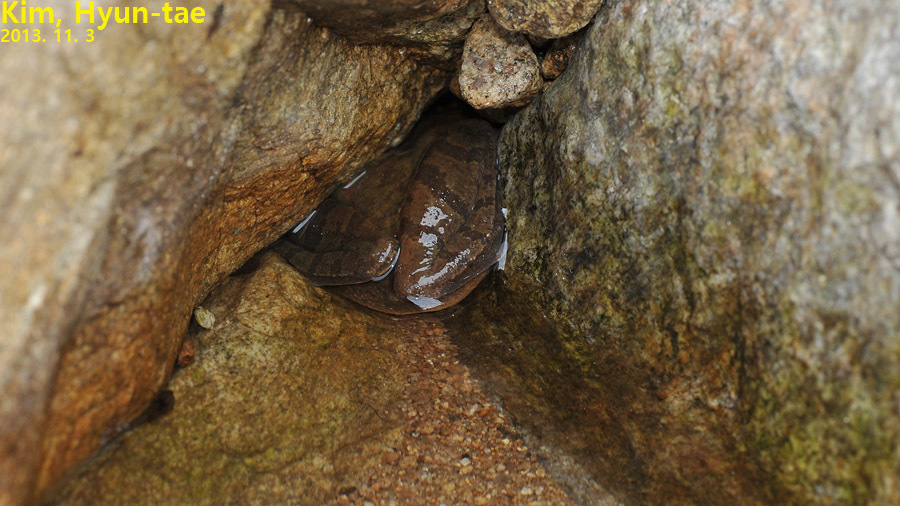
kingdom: Animalia
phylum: Chordata
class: Amphibia
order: Anura
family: Ranidae
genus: Rana
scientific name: Rana uenoi
